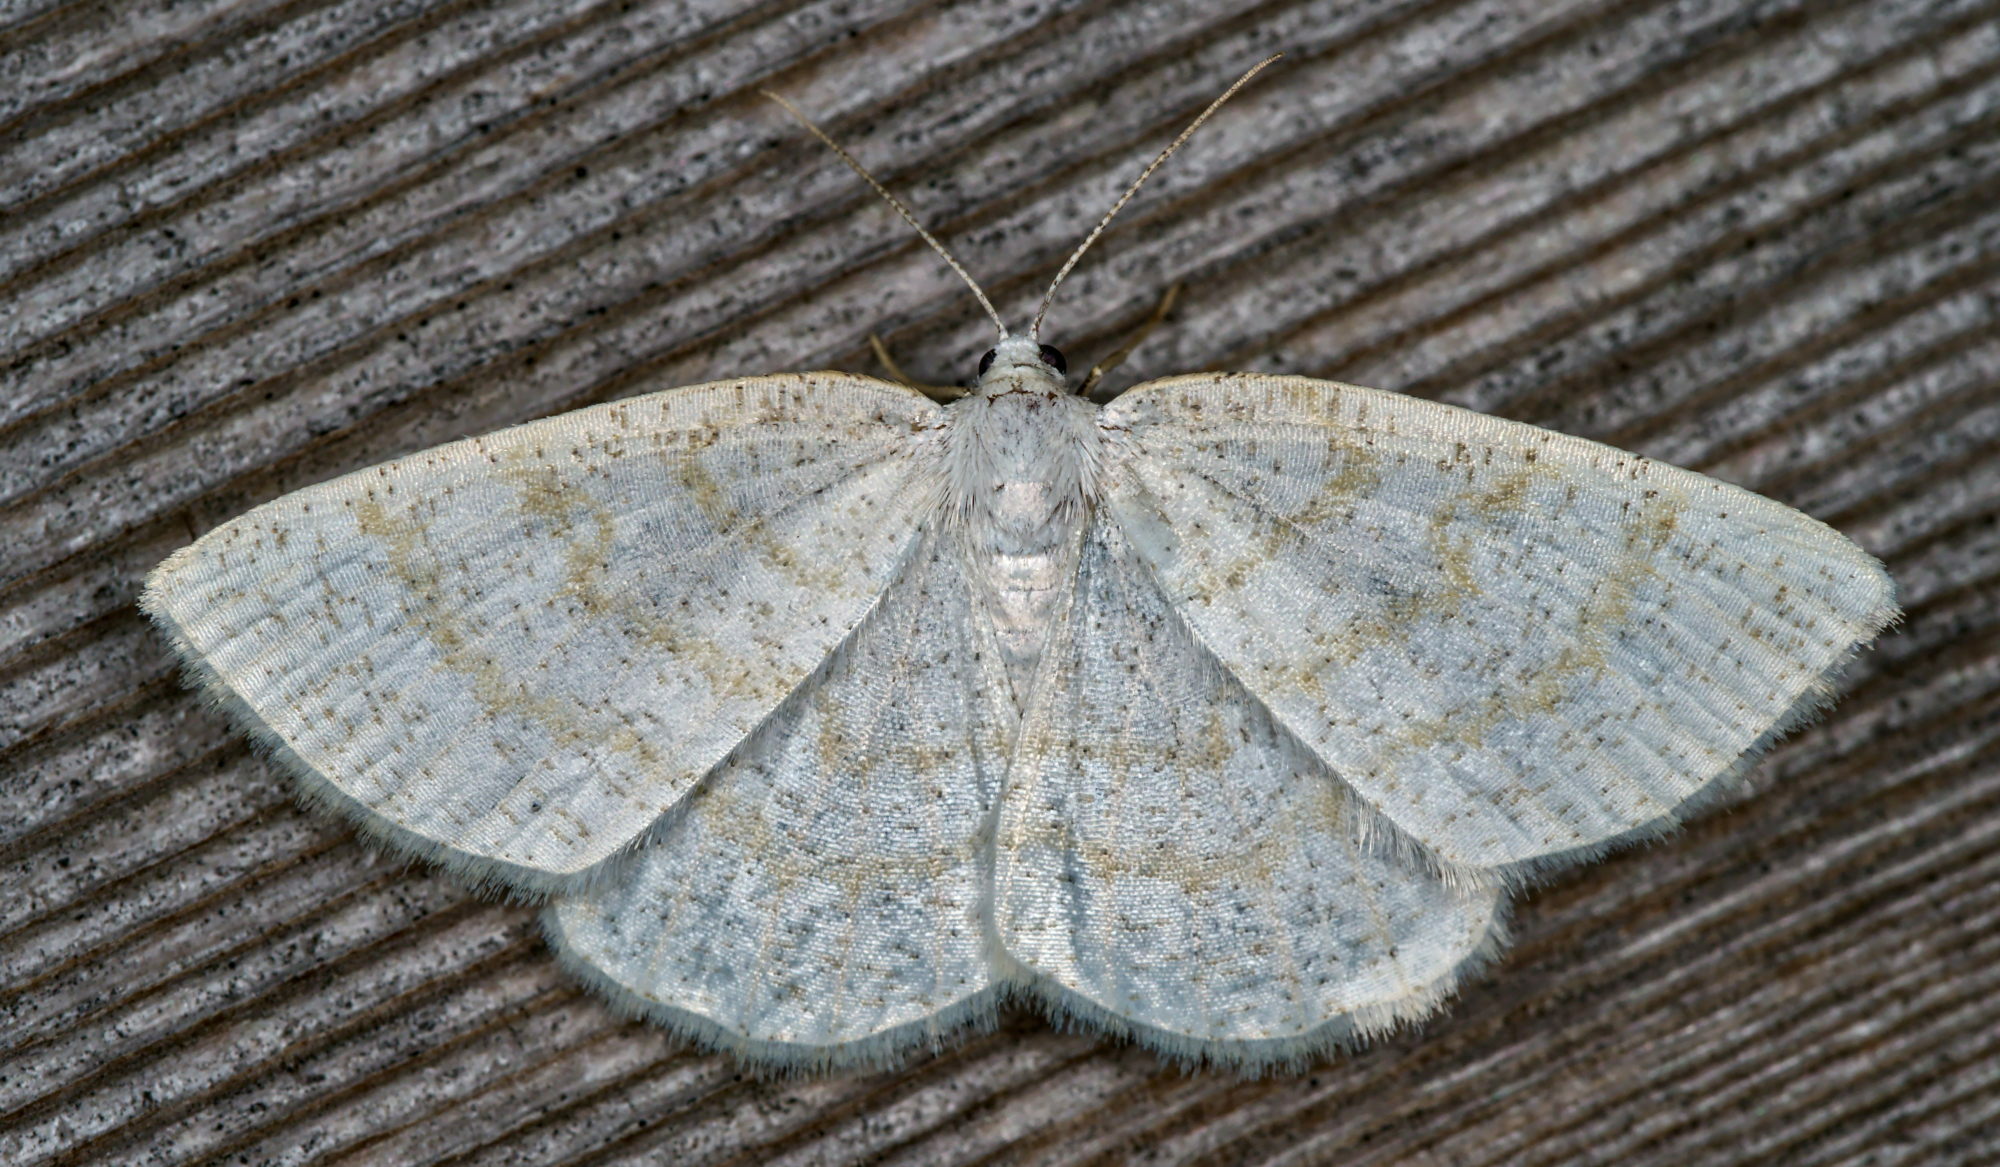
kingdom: Animalia
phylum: Arthropoda
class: Insecta
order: Lepidoptera
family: Geometridae
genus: Cabera
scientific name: Cabera exanthemata
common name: Common wave
